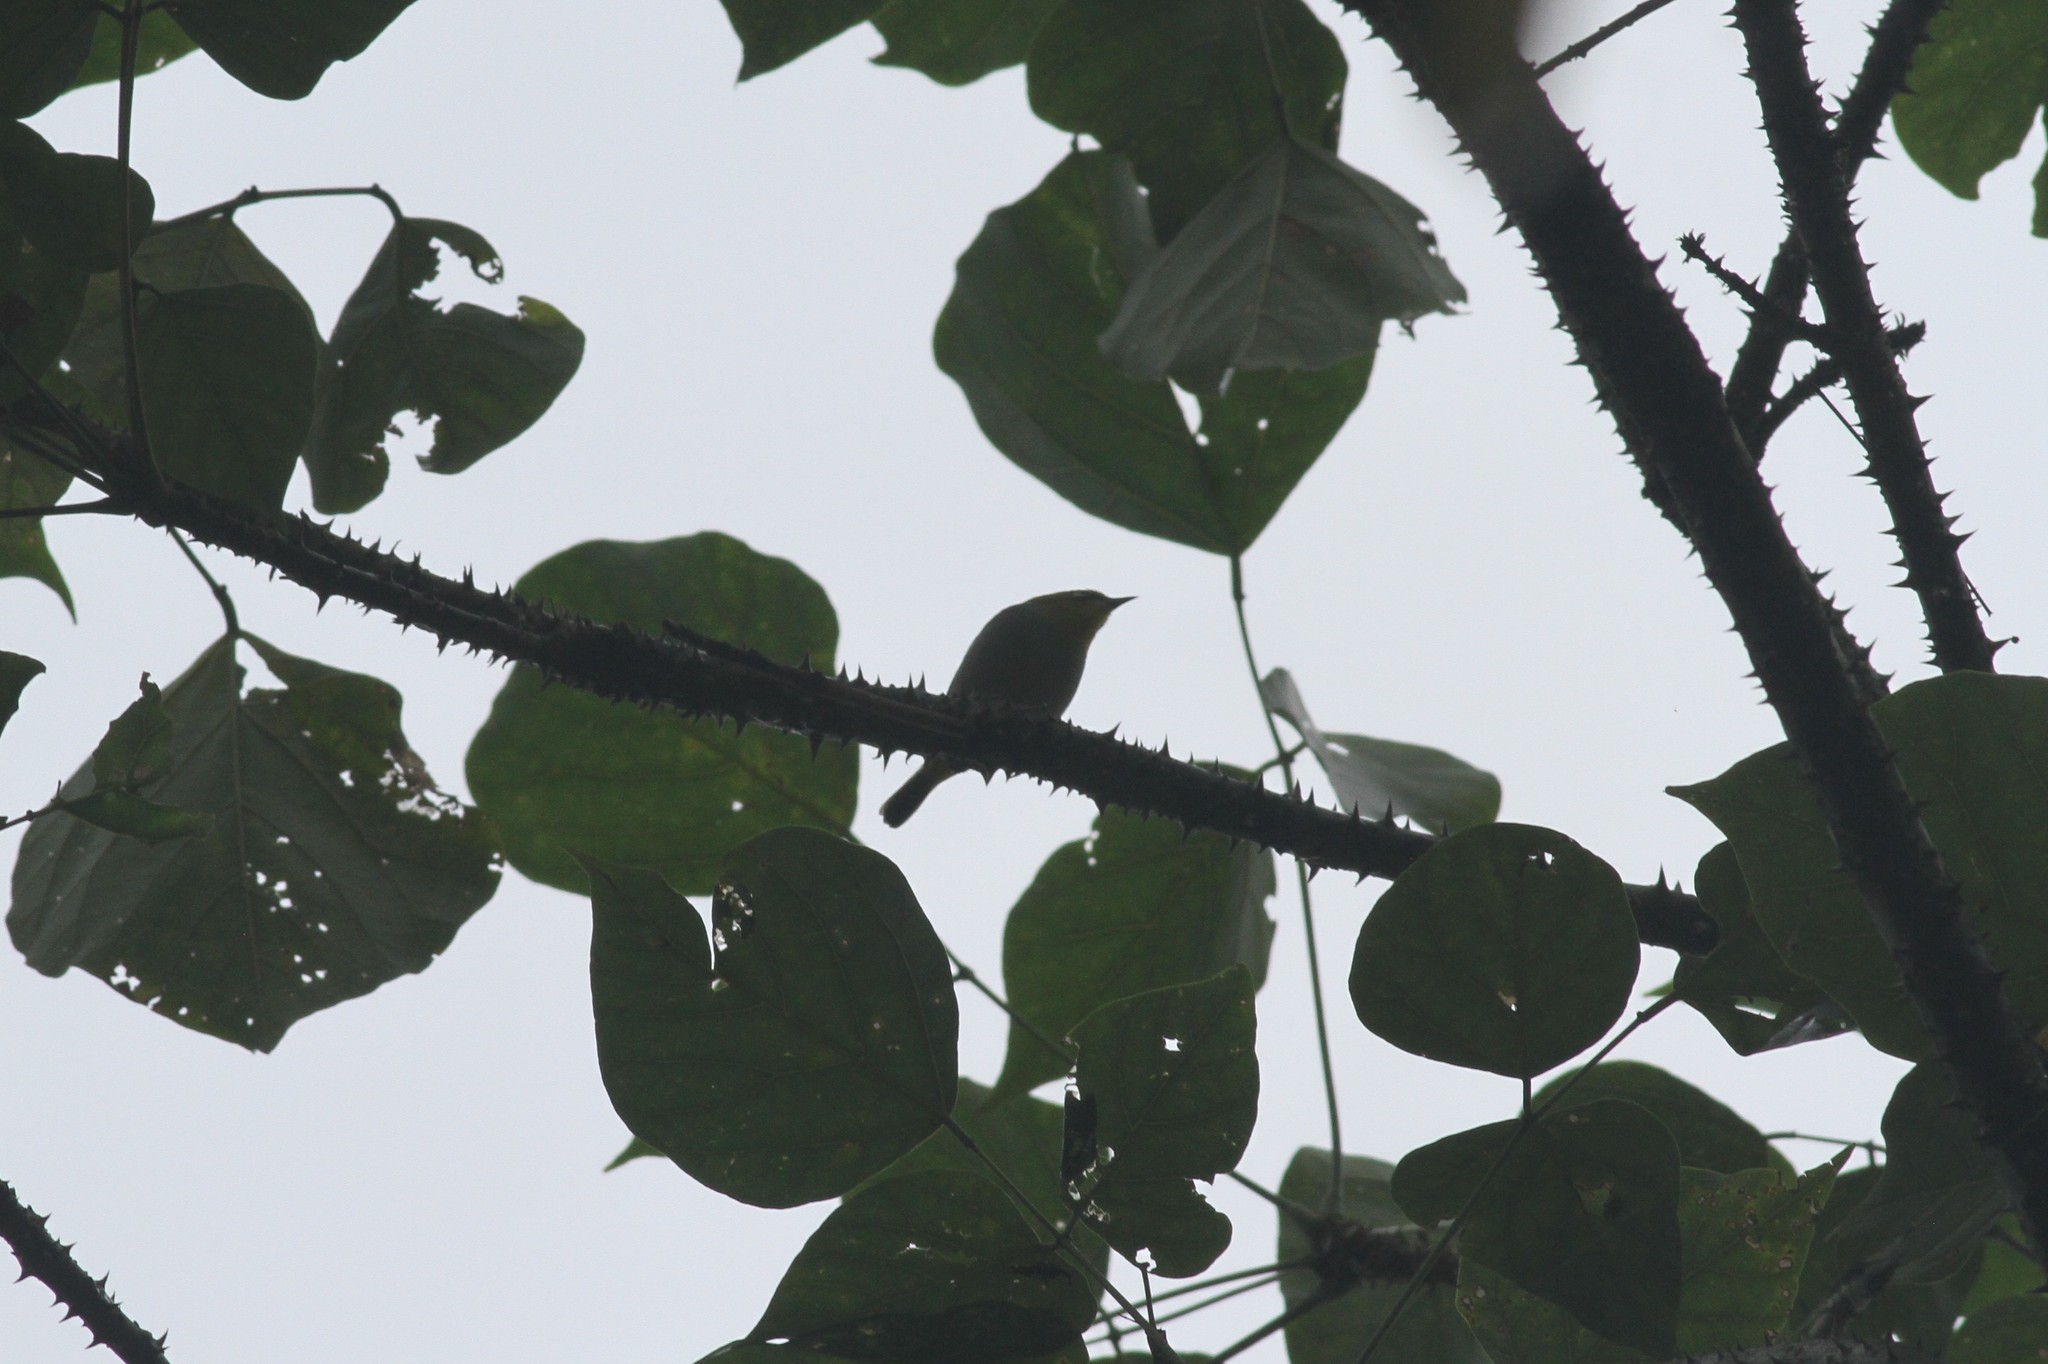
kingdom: Animalia
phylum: Chordata
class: Aves
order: Passeriformes
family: Zosteropidae
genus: Zosterops
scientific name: Zosterops palpebrosus
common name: Oriental white-eye
